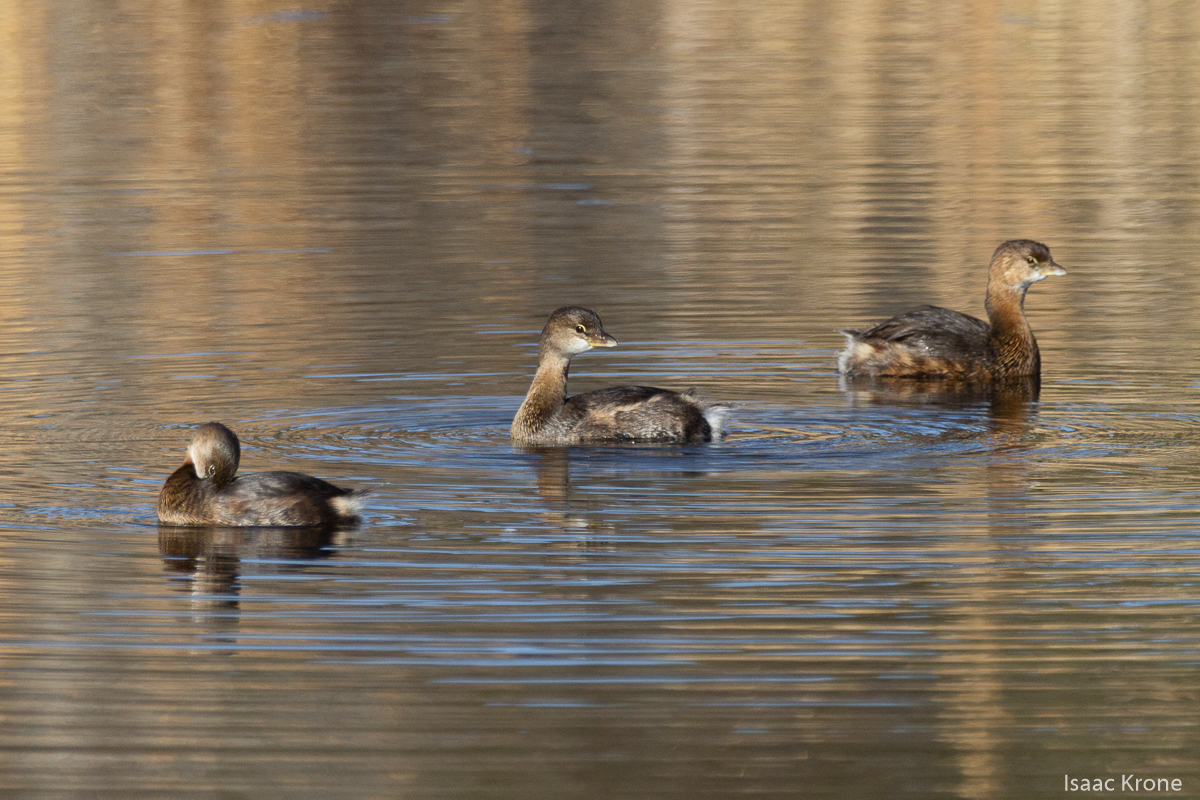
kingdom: Animalia
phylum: Chordata
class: Aves
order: Podicipediformes
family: Podicipedidae
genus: Podilymbus
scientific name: Podilymbus podiceps
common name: Pied-billed grebe
